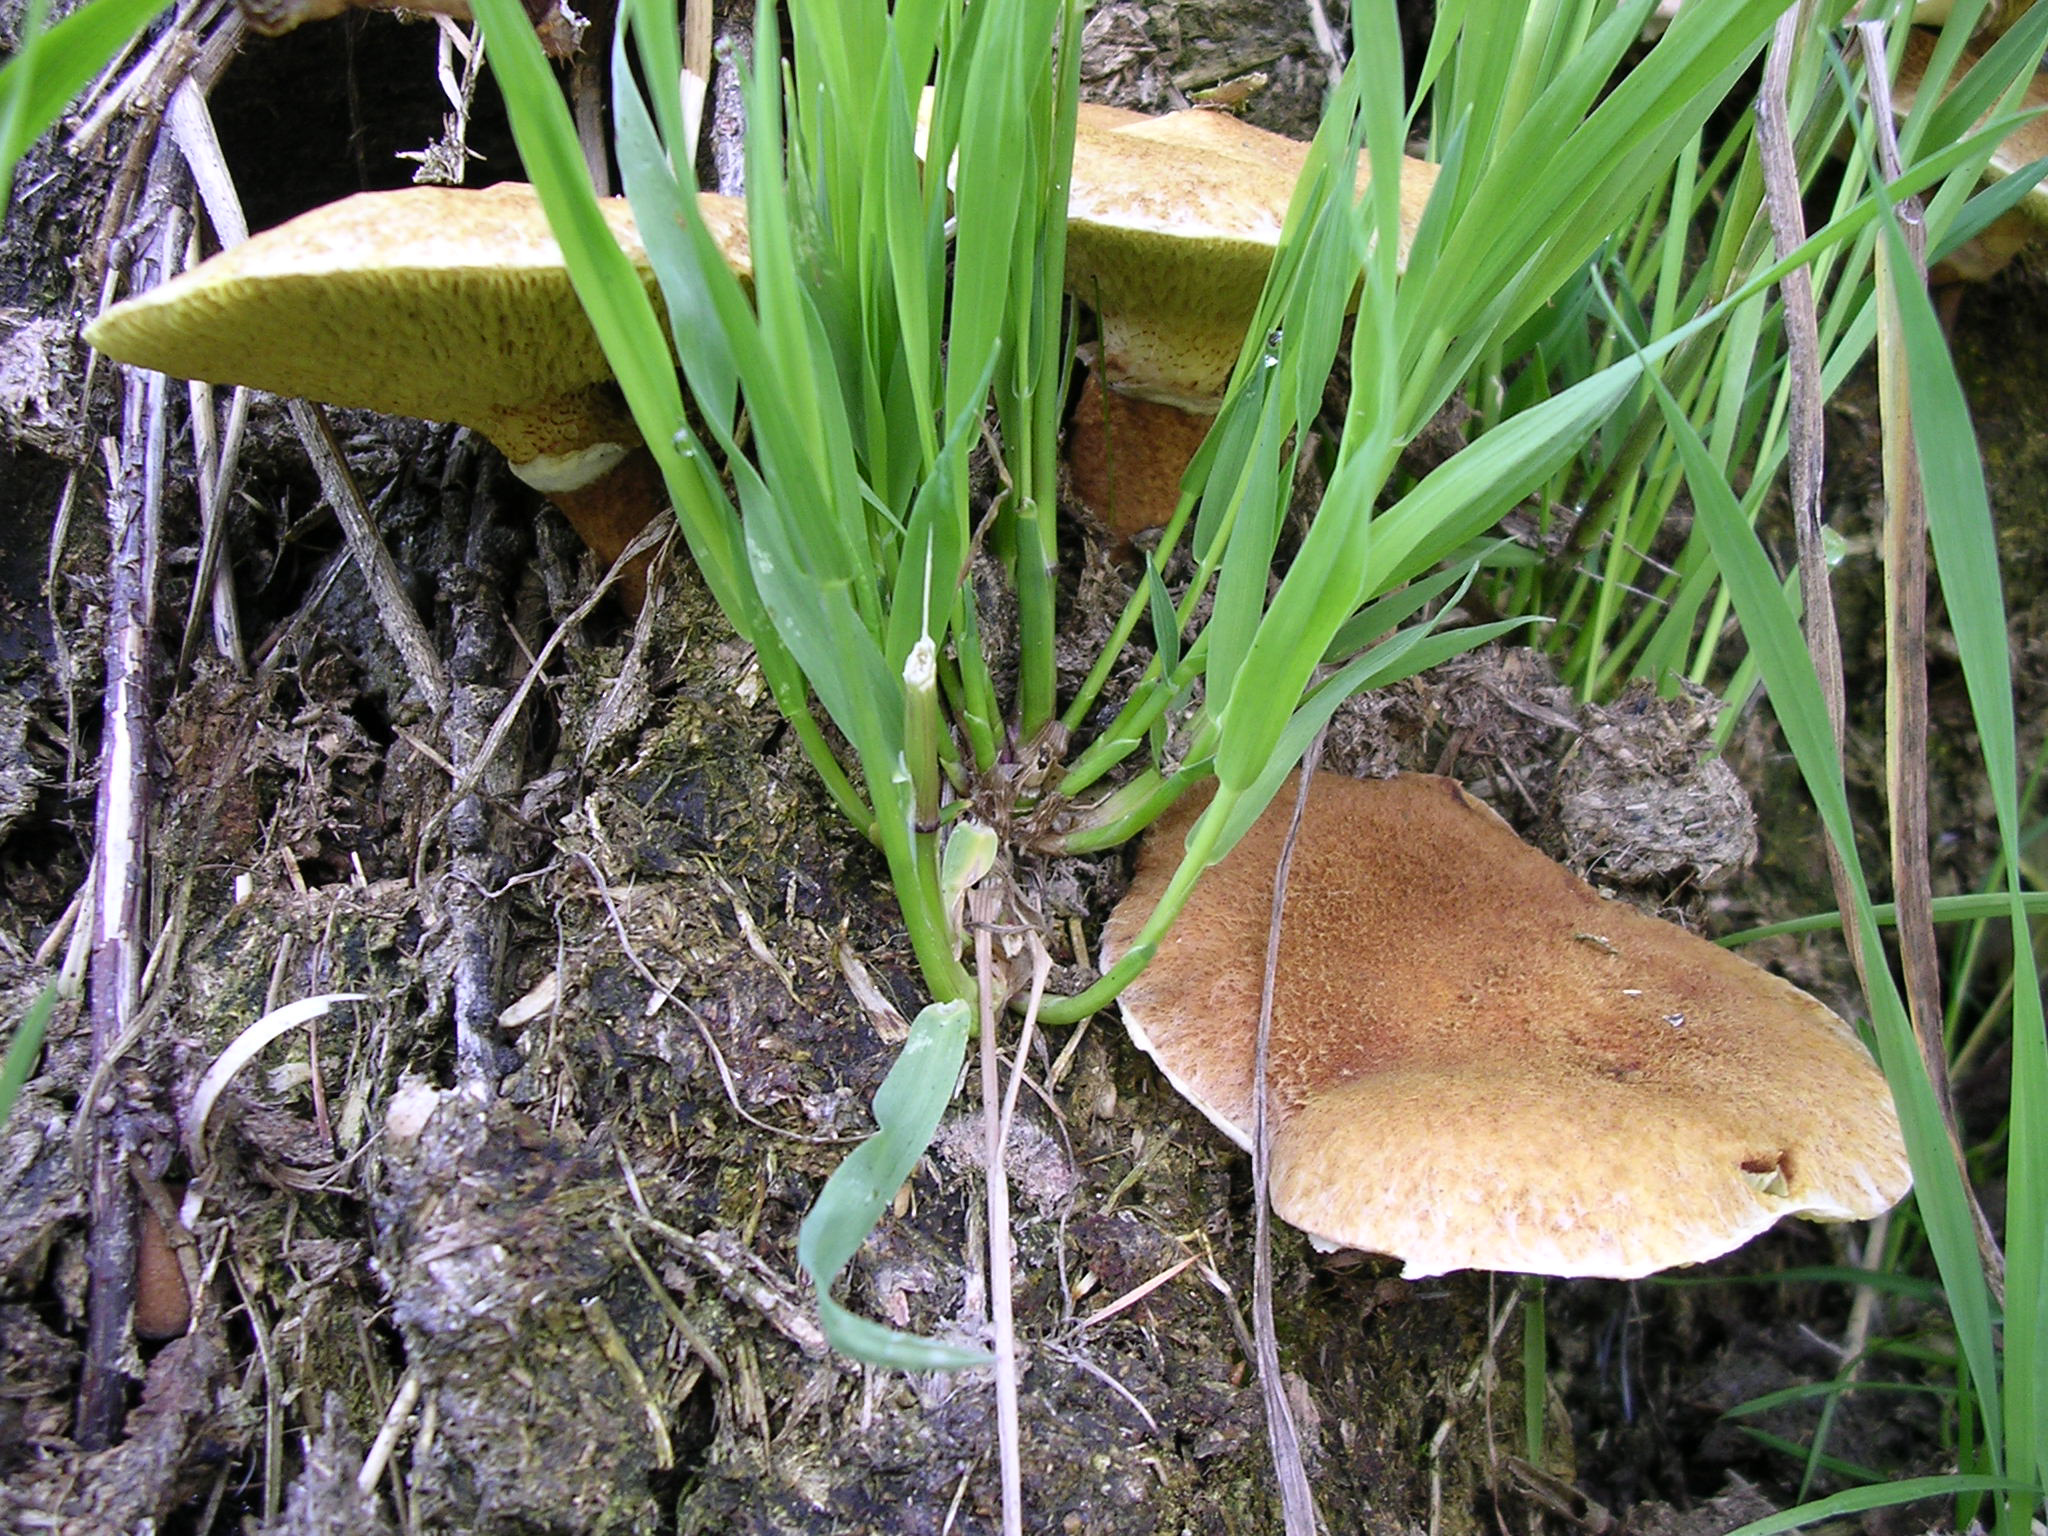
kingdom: Fungi
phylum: Basidiomycota
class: Agaricomycetes
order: Boletales
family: Suillaceae
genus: Suillus
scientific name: Suillus cavipes
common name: Hollow bolete
